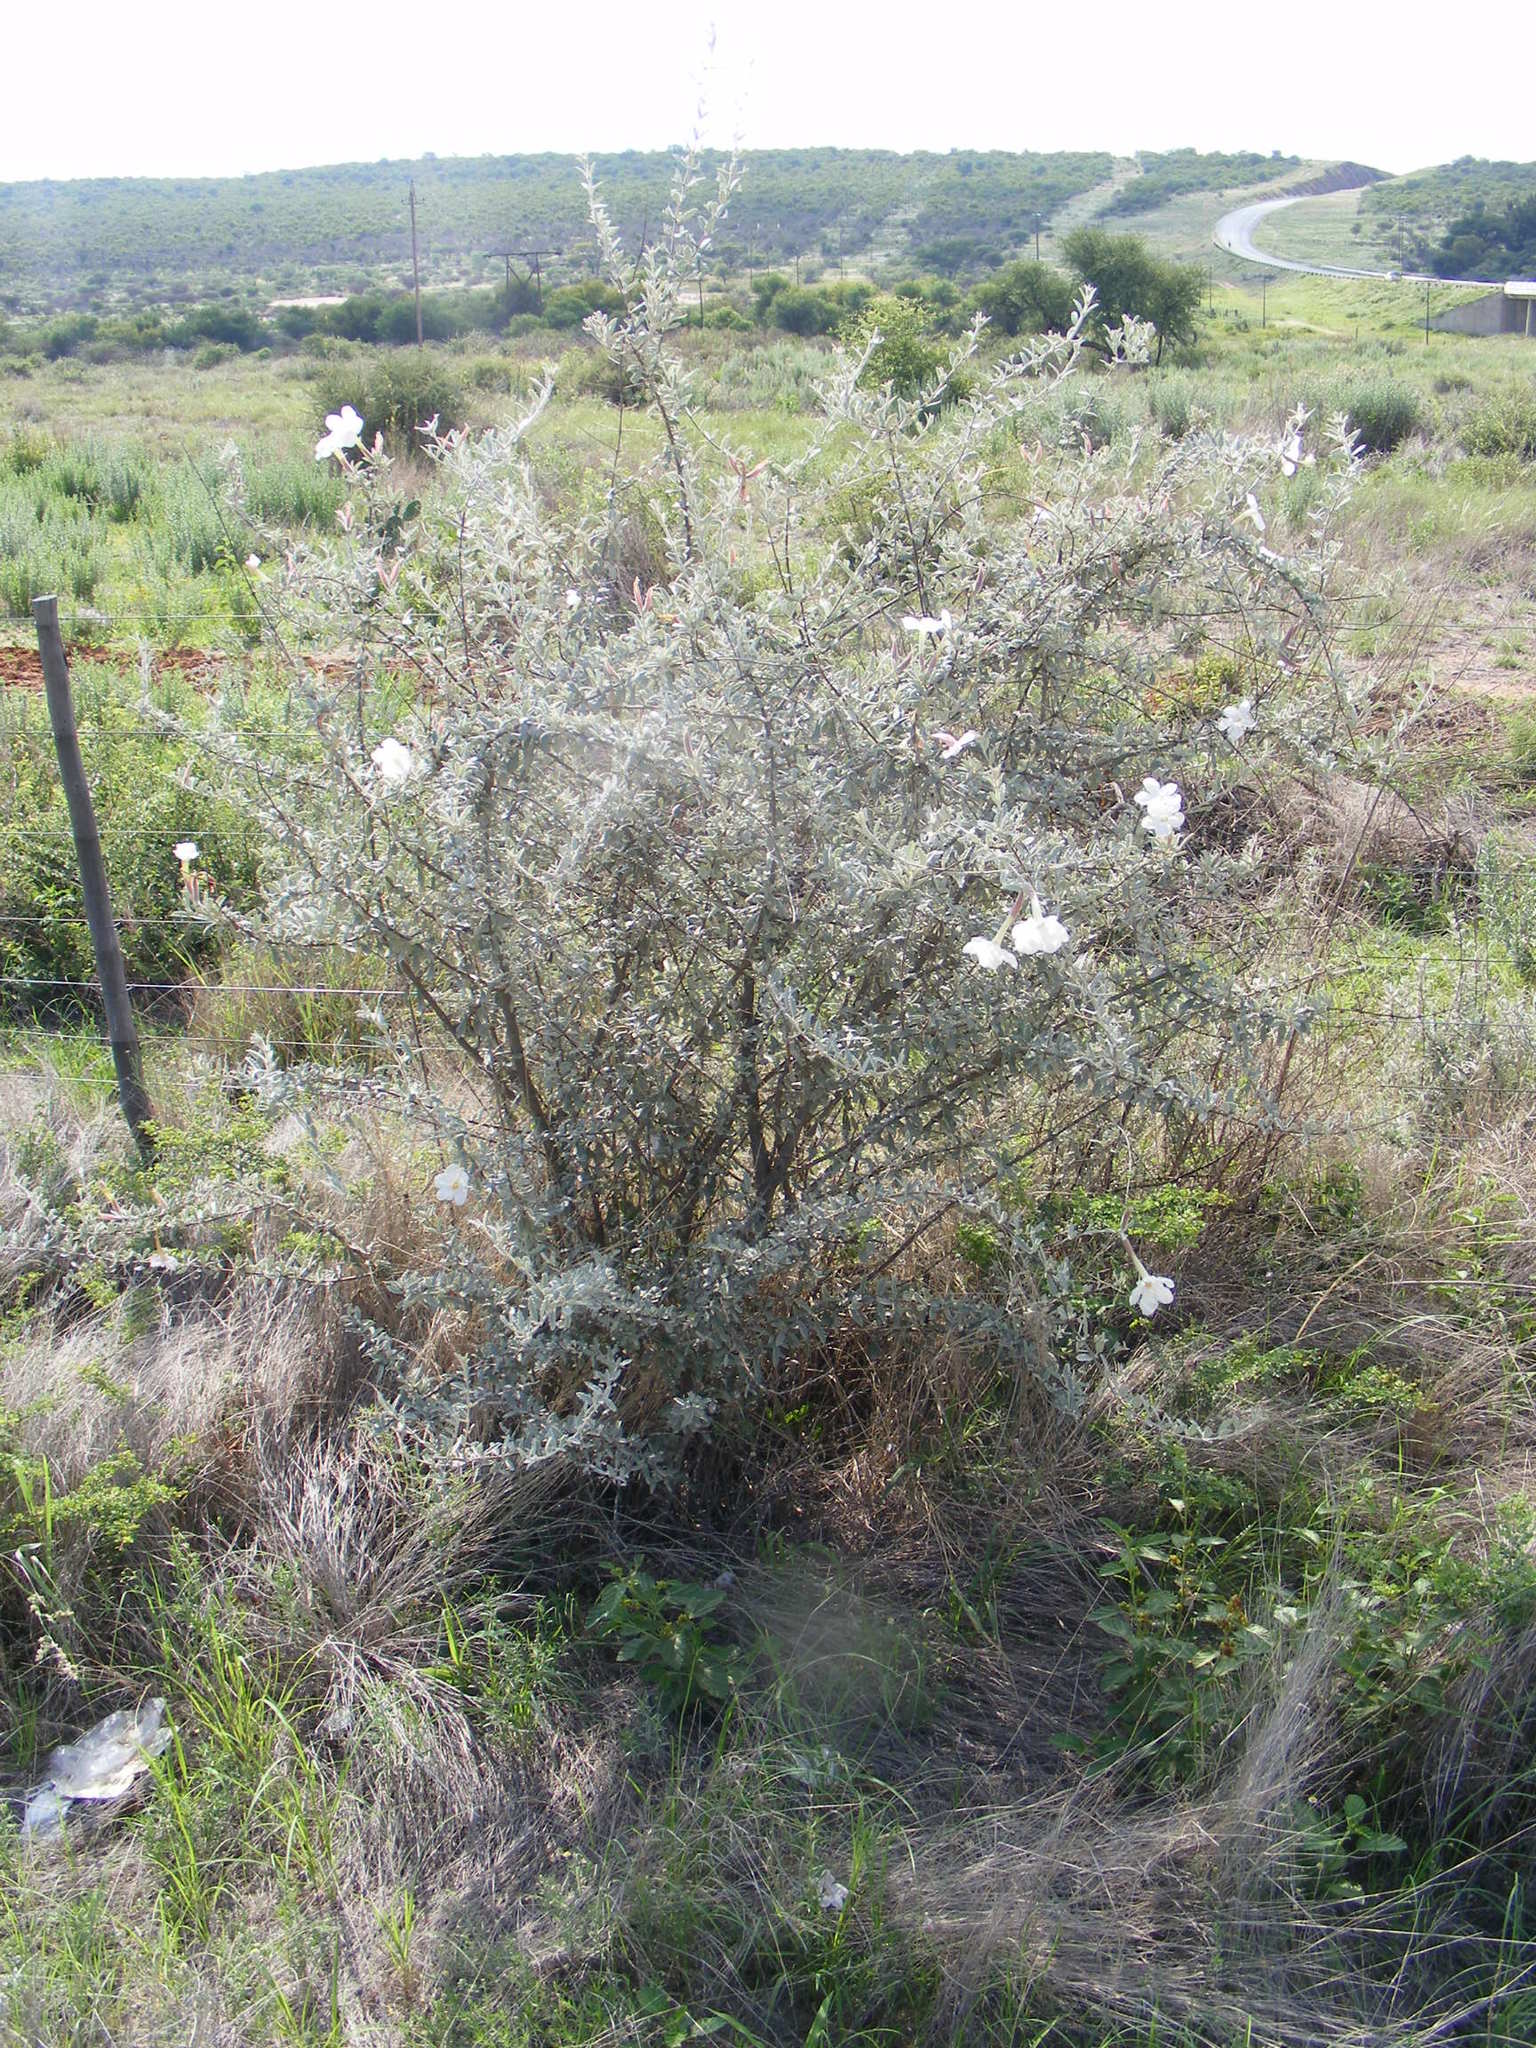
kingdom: Plantae
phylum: Tracheophyta
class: Magnoliopsida
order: Lamiales
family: Bignoniaceae
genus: Catophractes
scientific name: Catophractes alexandri
